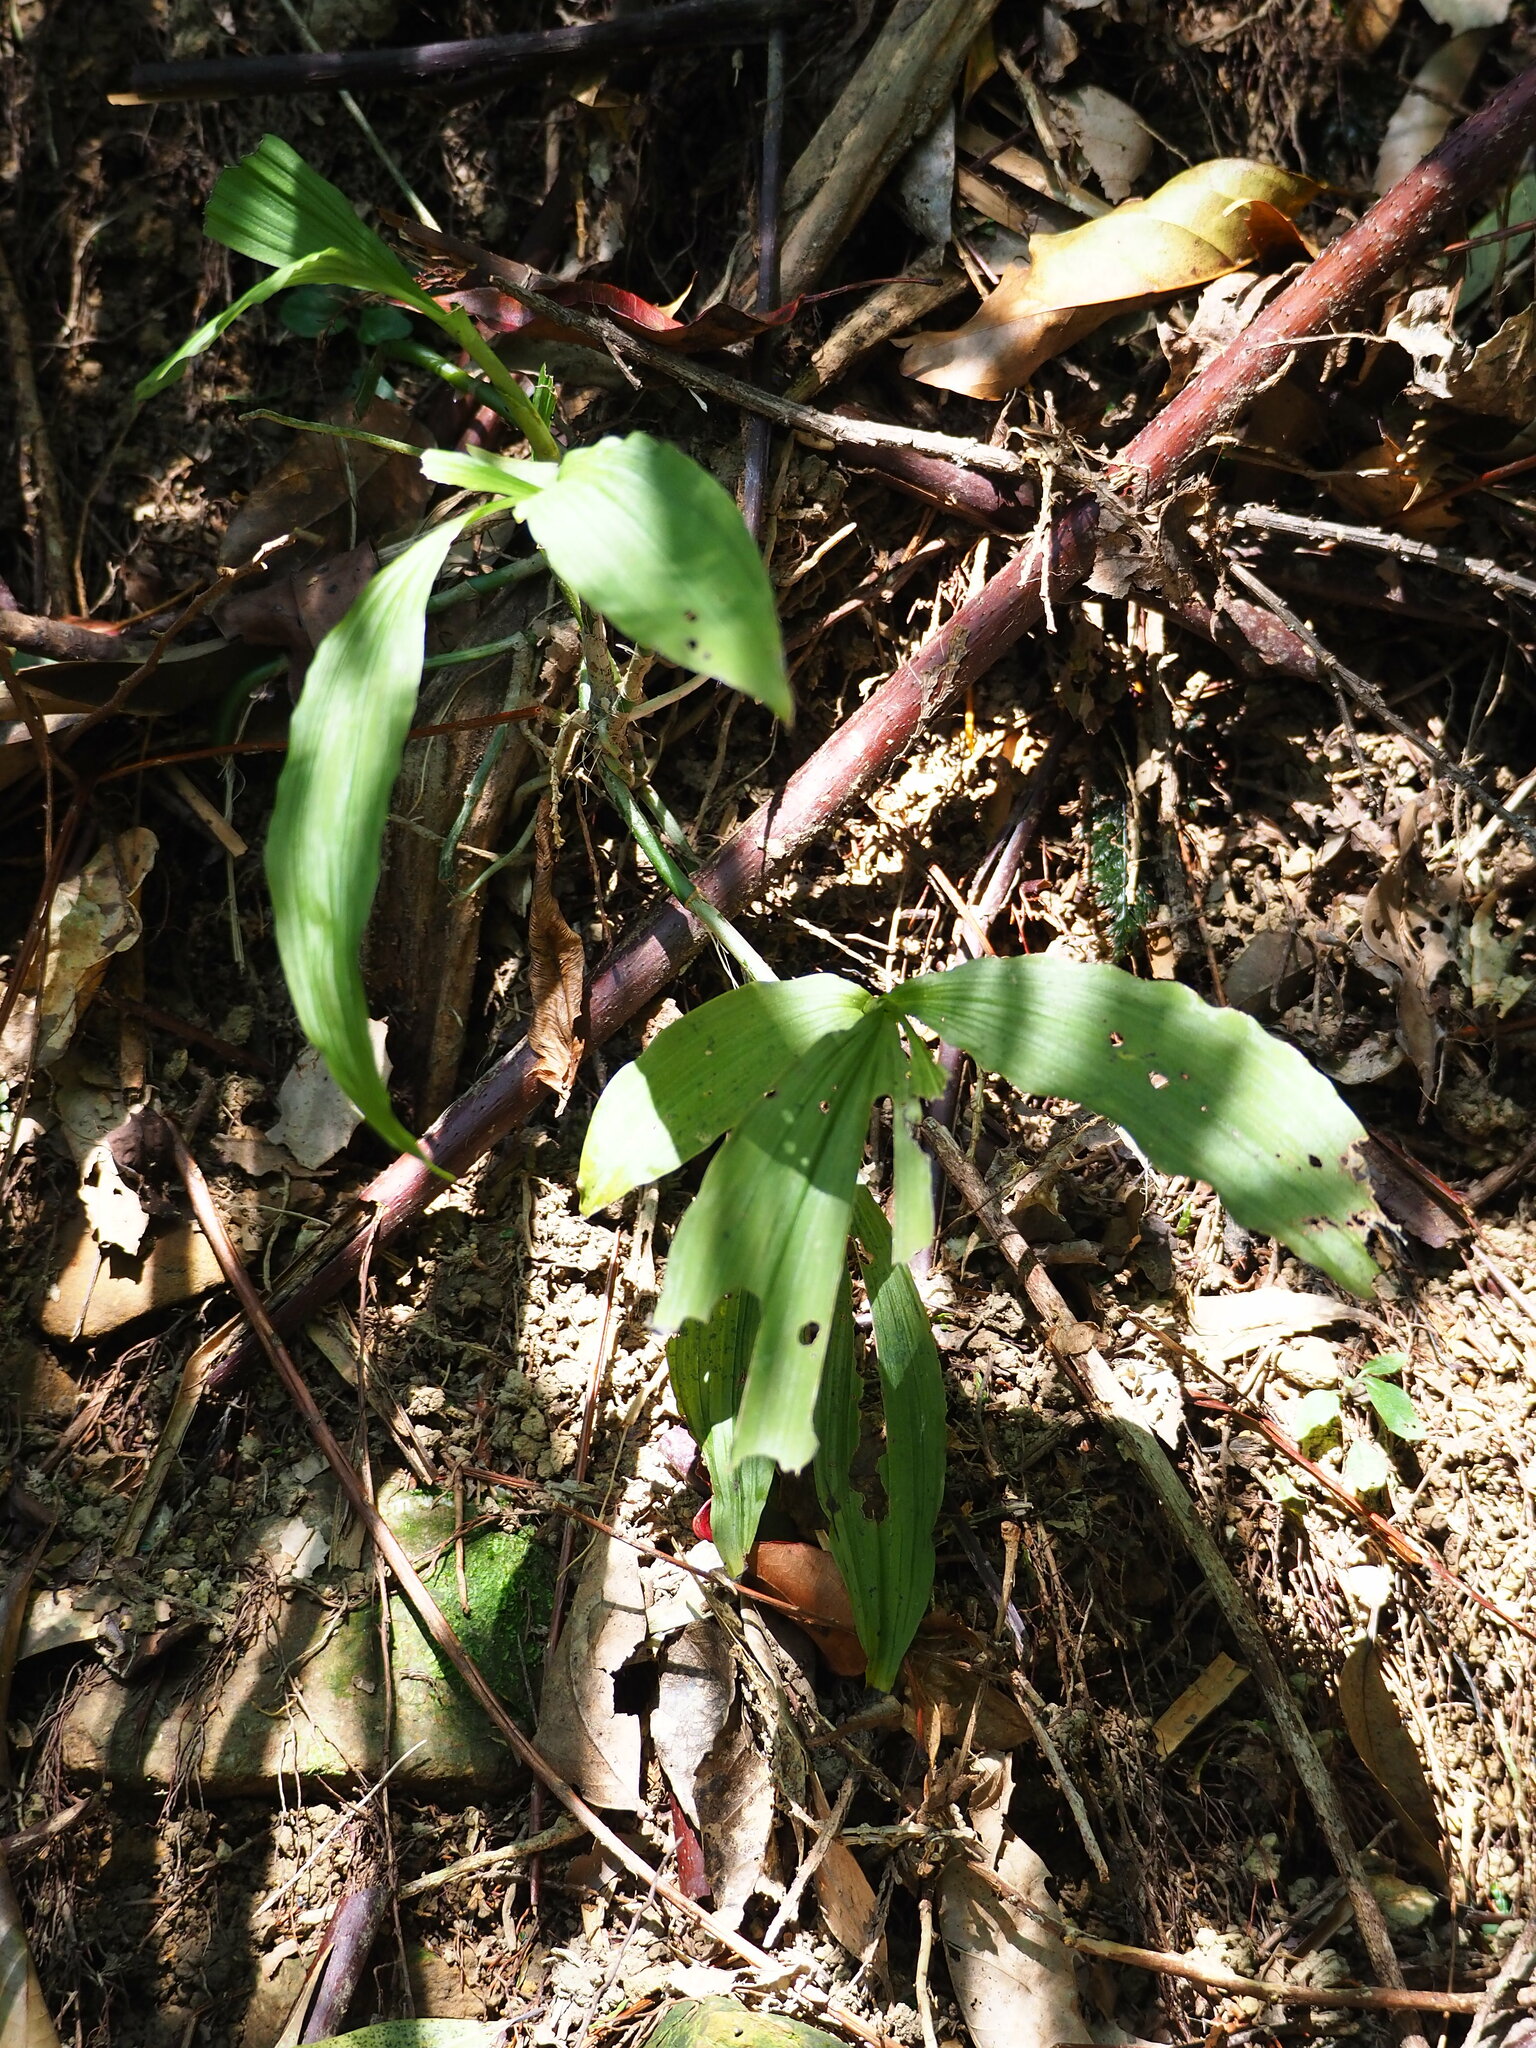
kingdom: Plantae
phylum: Tracheophyta
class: Liliopsida
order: Asparagales
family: Orchidaceae
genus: Calanthe
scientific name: Calanthe obcordata
